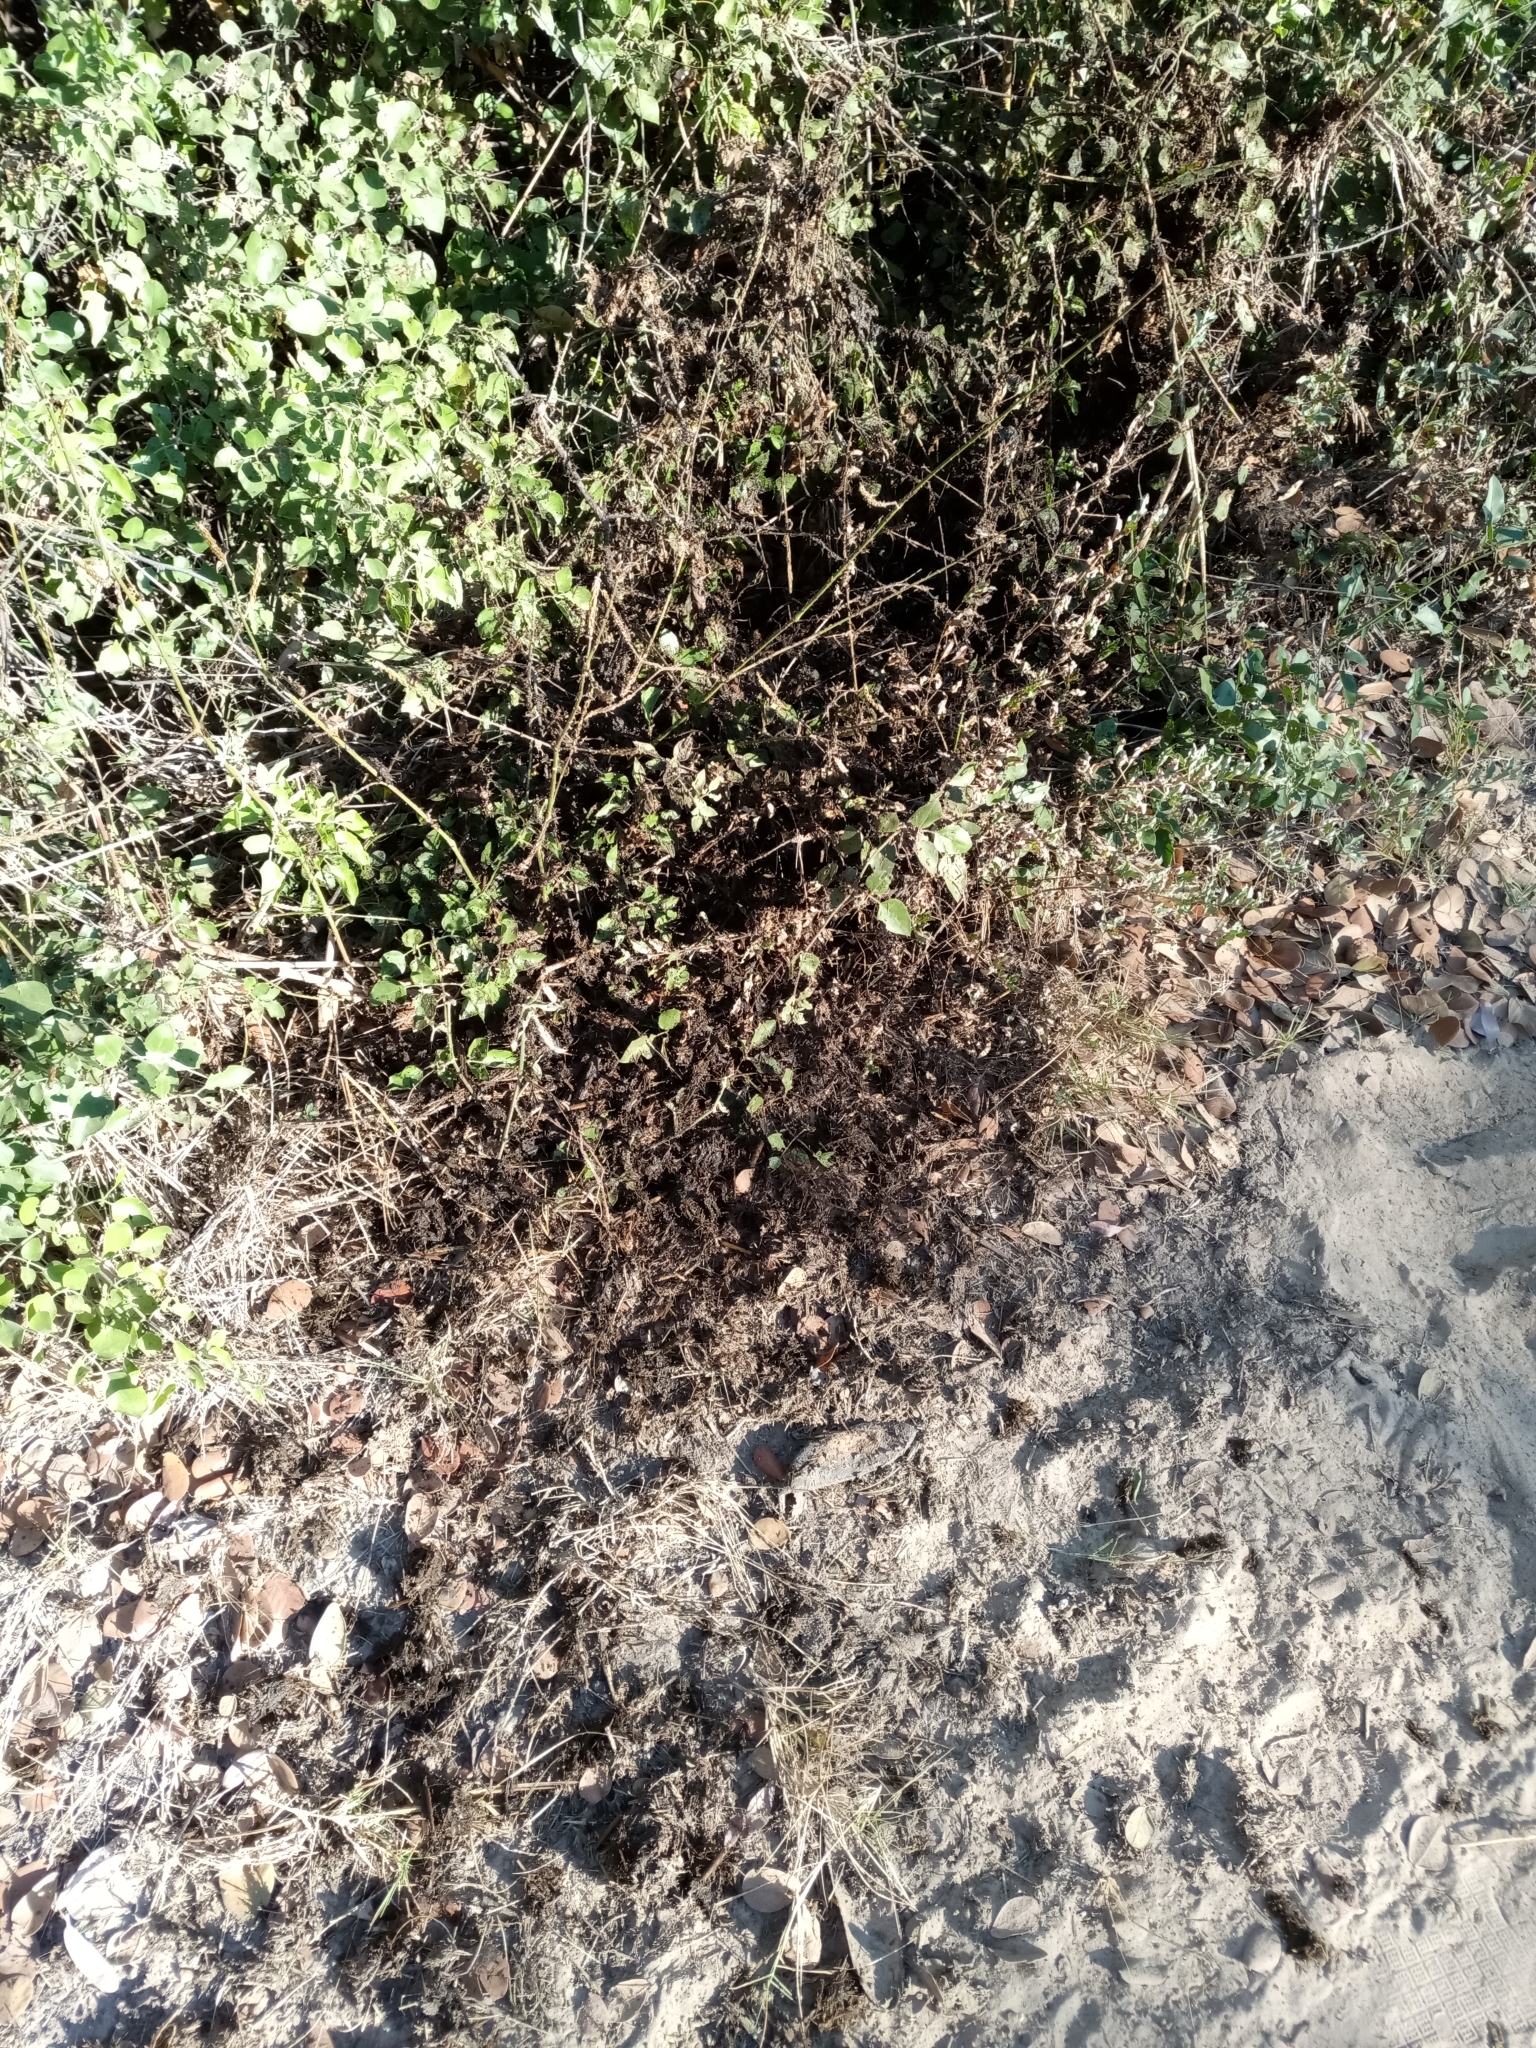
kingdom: Animalia
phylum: Chordata
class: Mammalia
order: Artiodactyla
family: Hippopotamidae
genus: Hippopotamus
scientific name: Hippopotamus amphibius
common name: Common hippopotamus
